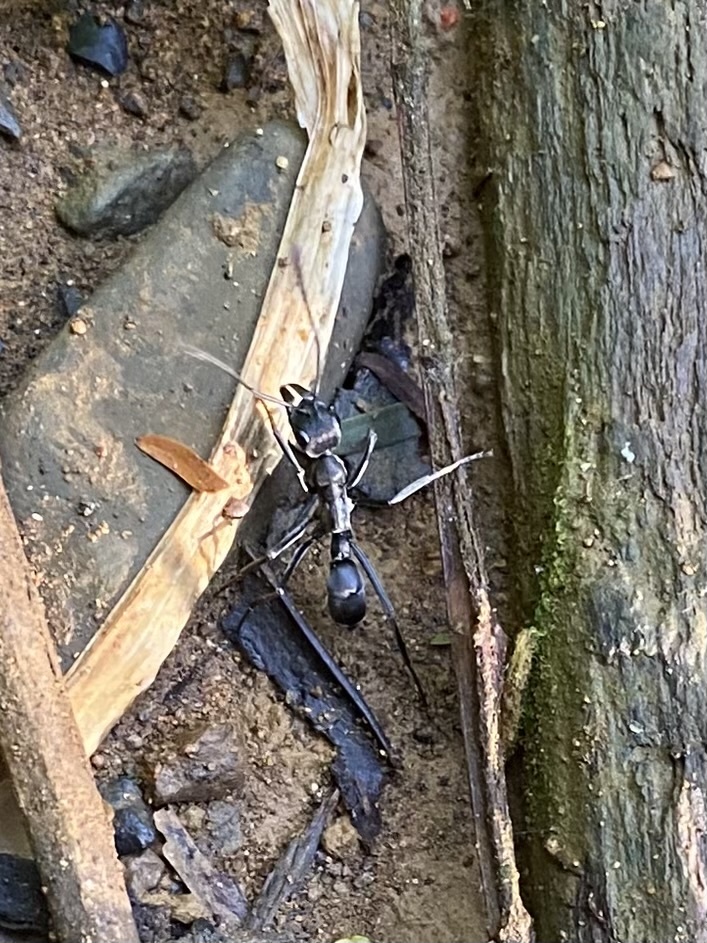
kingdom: Animalia
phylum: Arthropoda
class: Insecta
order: Hymenoptera
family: Formicidae
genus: Neoponera
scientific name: Neoponera obscuricornis
